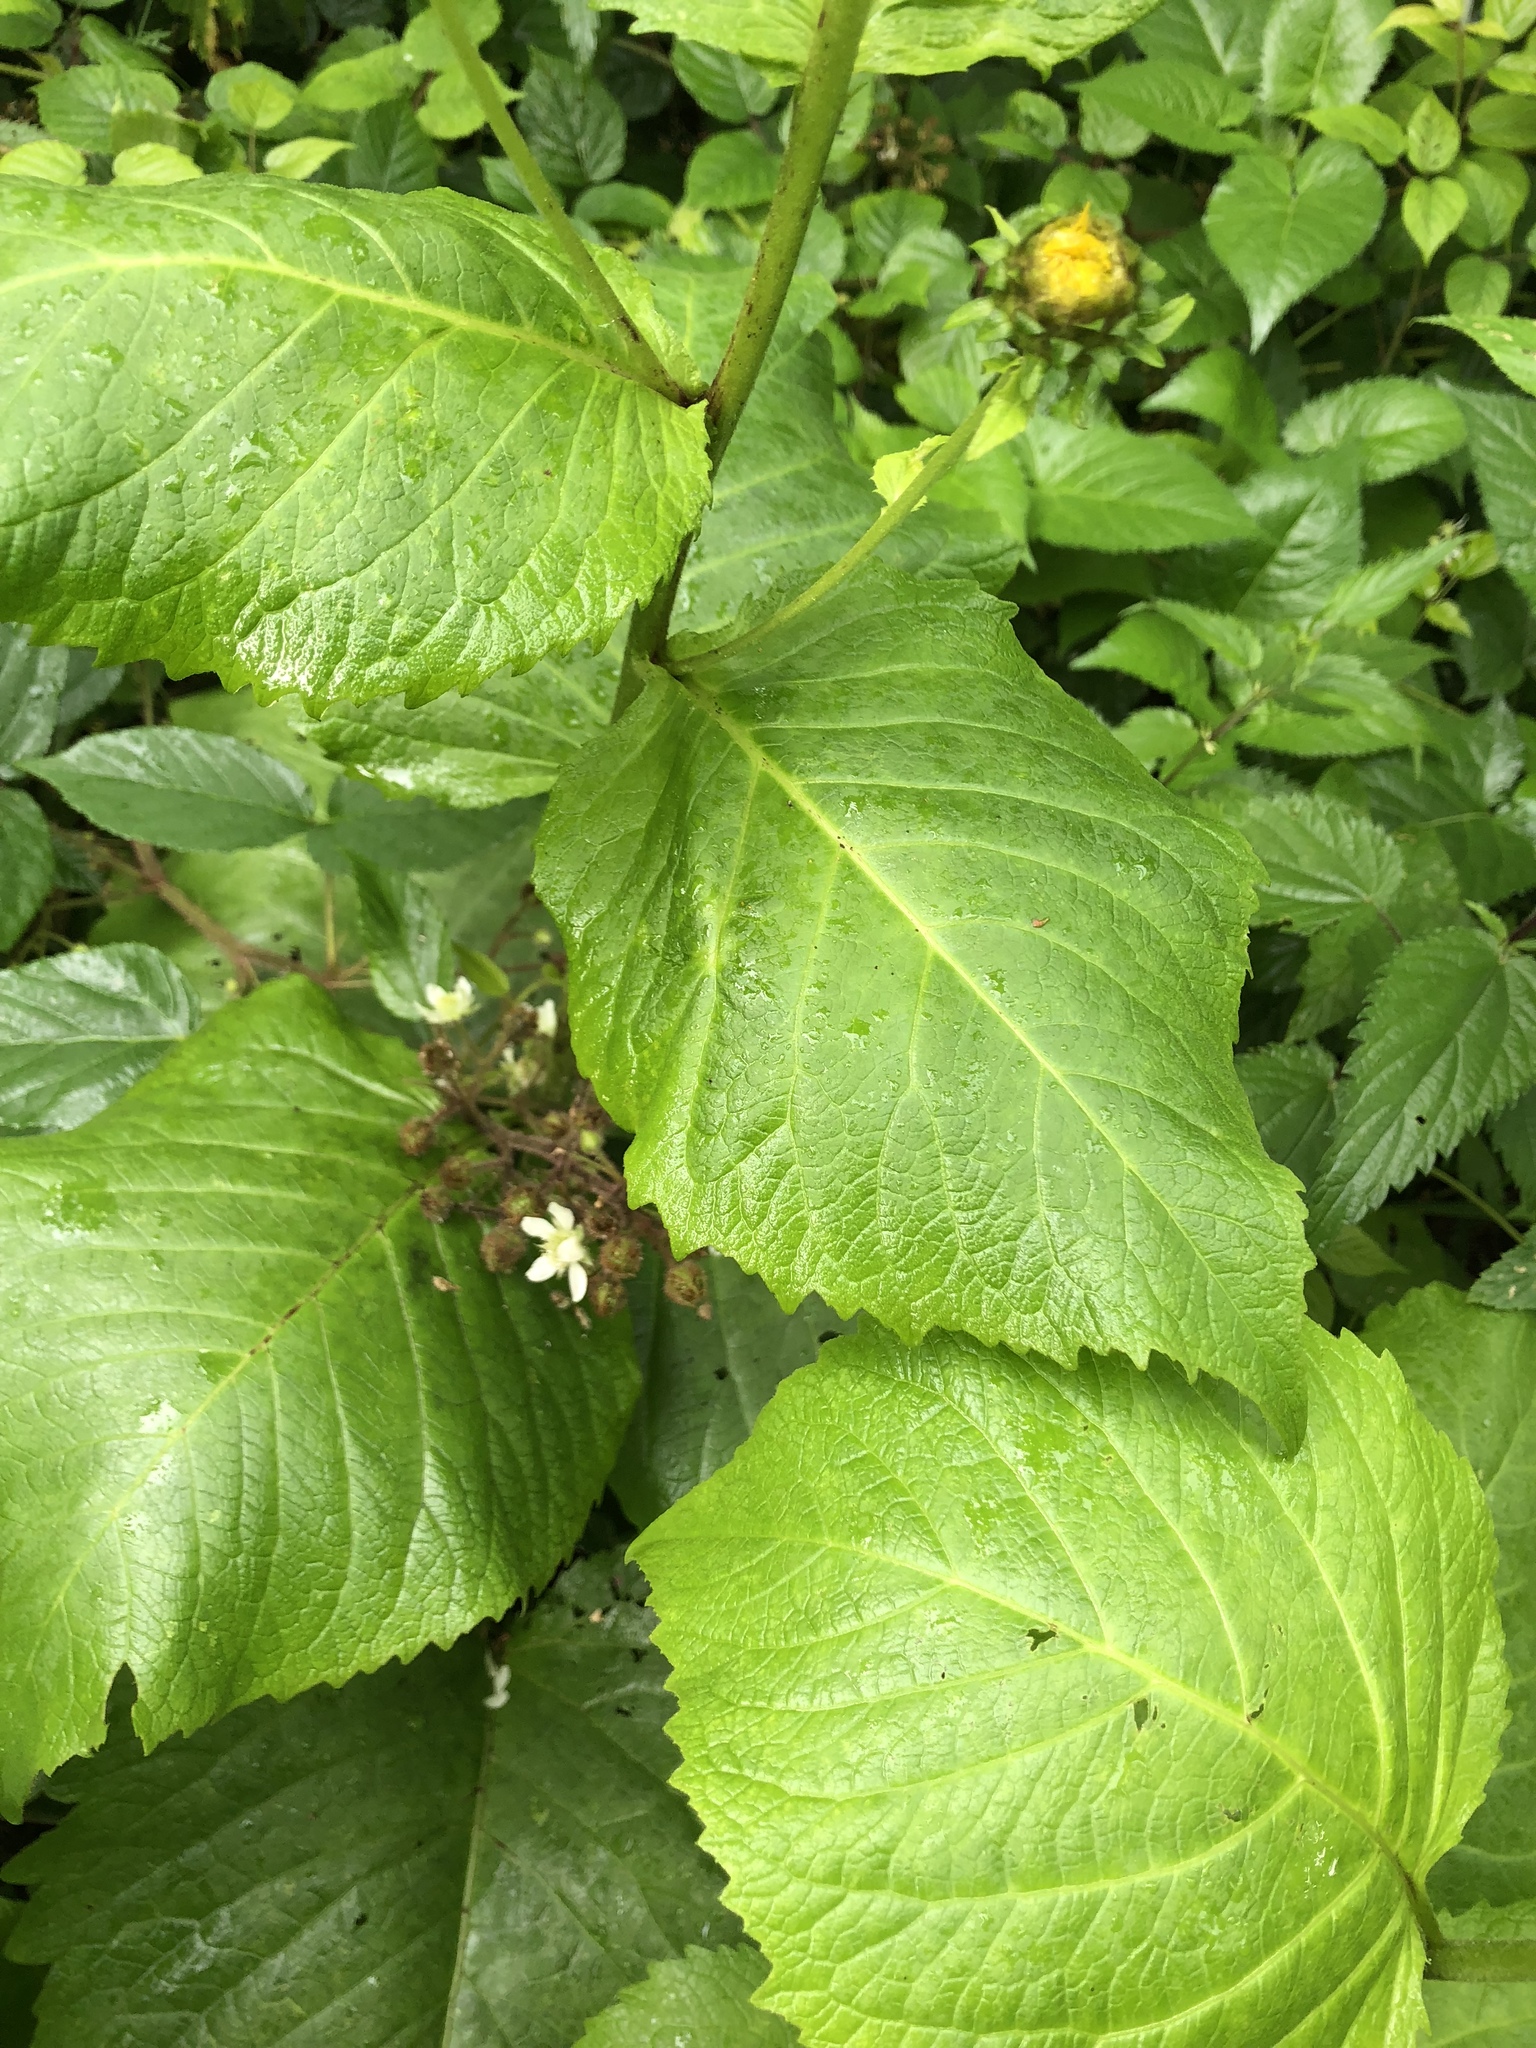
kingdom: Plantae
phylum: Tracheophyta
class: Magnoliopsida
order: Asterales
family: Asteraceae
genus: Telekia
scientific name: Telekia speciosa
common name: Yellow oxeye
